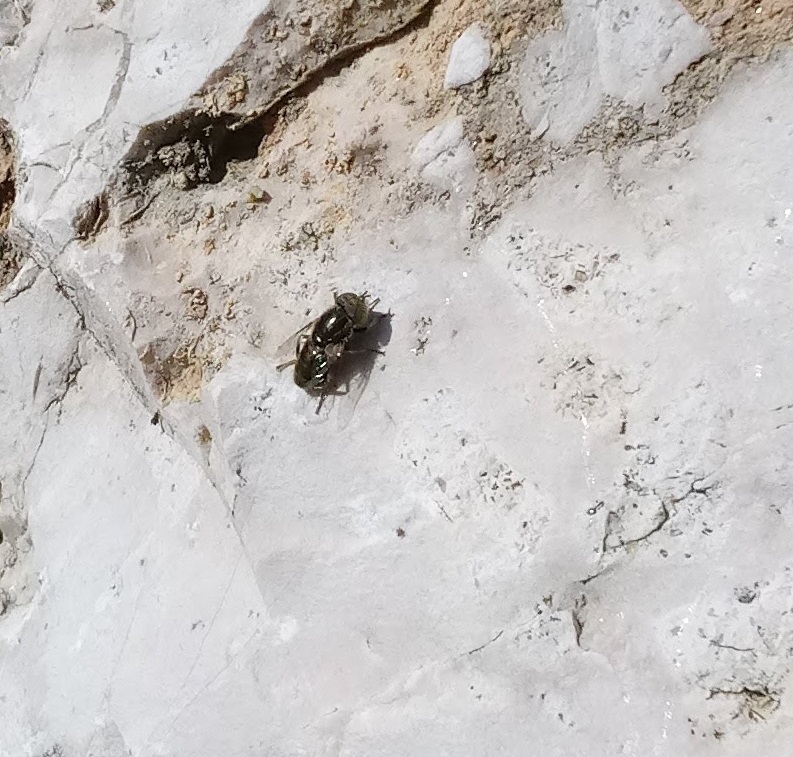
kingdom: Animalia
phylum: Arthropoda
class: Insecta
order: Diptera
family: Syrphidae
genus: Eristalinus
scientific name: Eristalinus aeneus
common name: Syrphid fly
